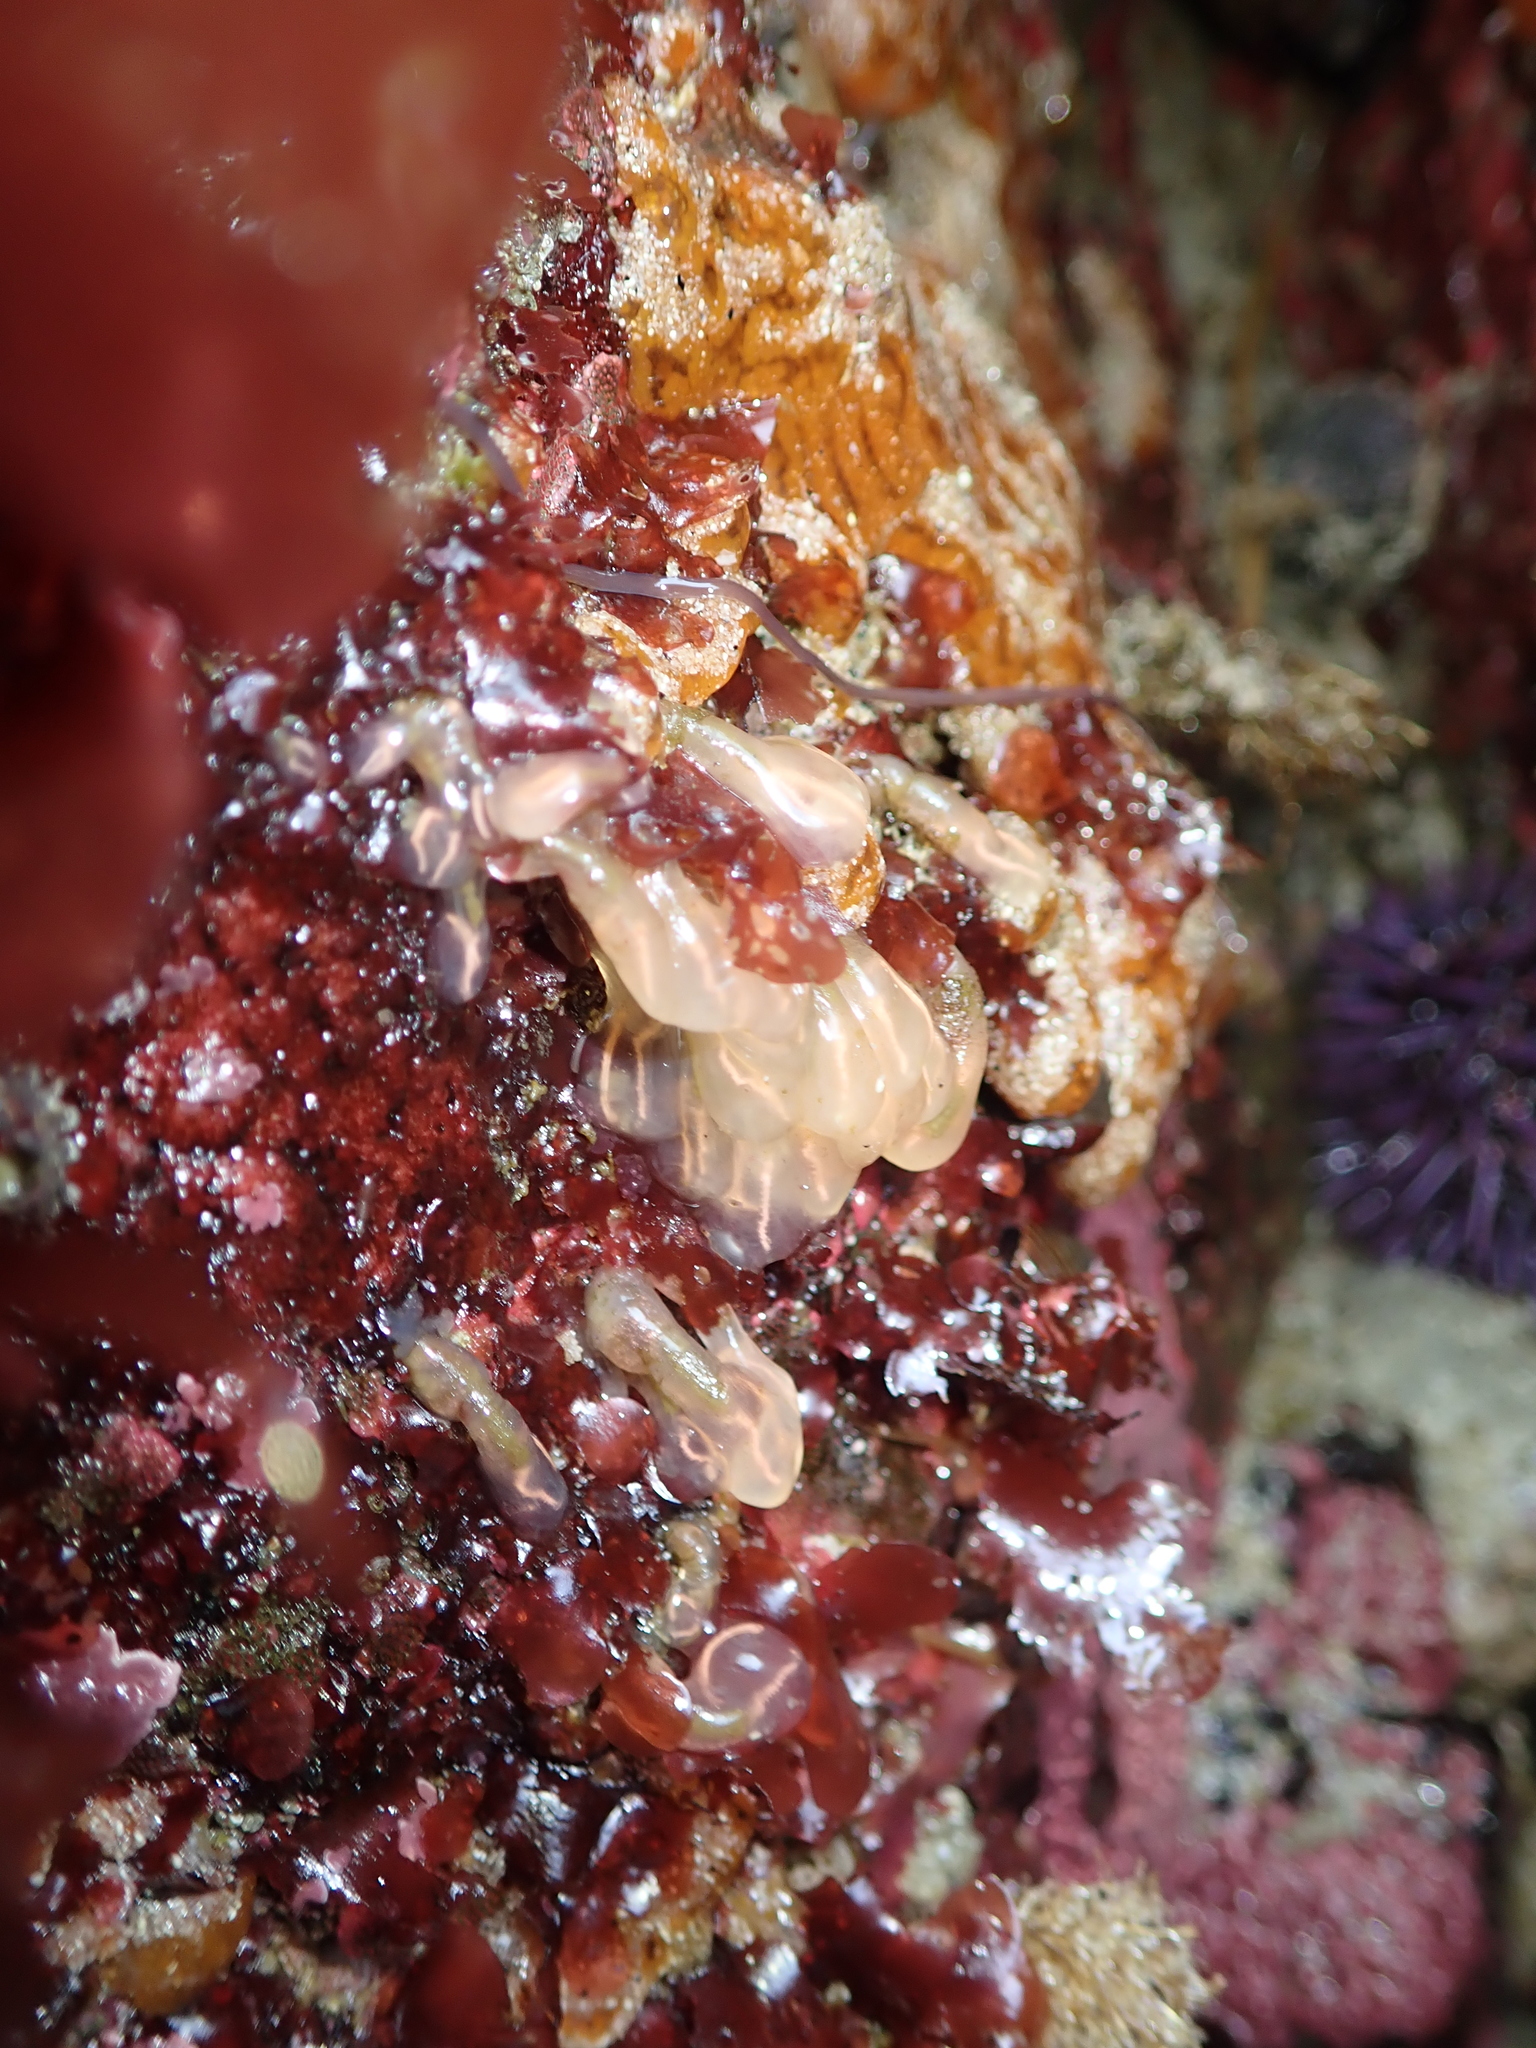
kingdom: Animalia
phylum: Chordata
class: Ascidiacea
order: Aplousobranchia
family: Clavelinidae
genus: Clavelina
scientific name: Clavelina huntsmani
